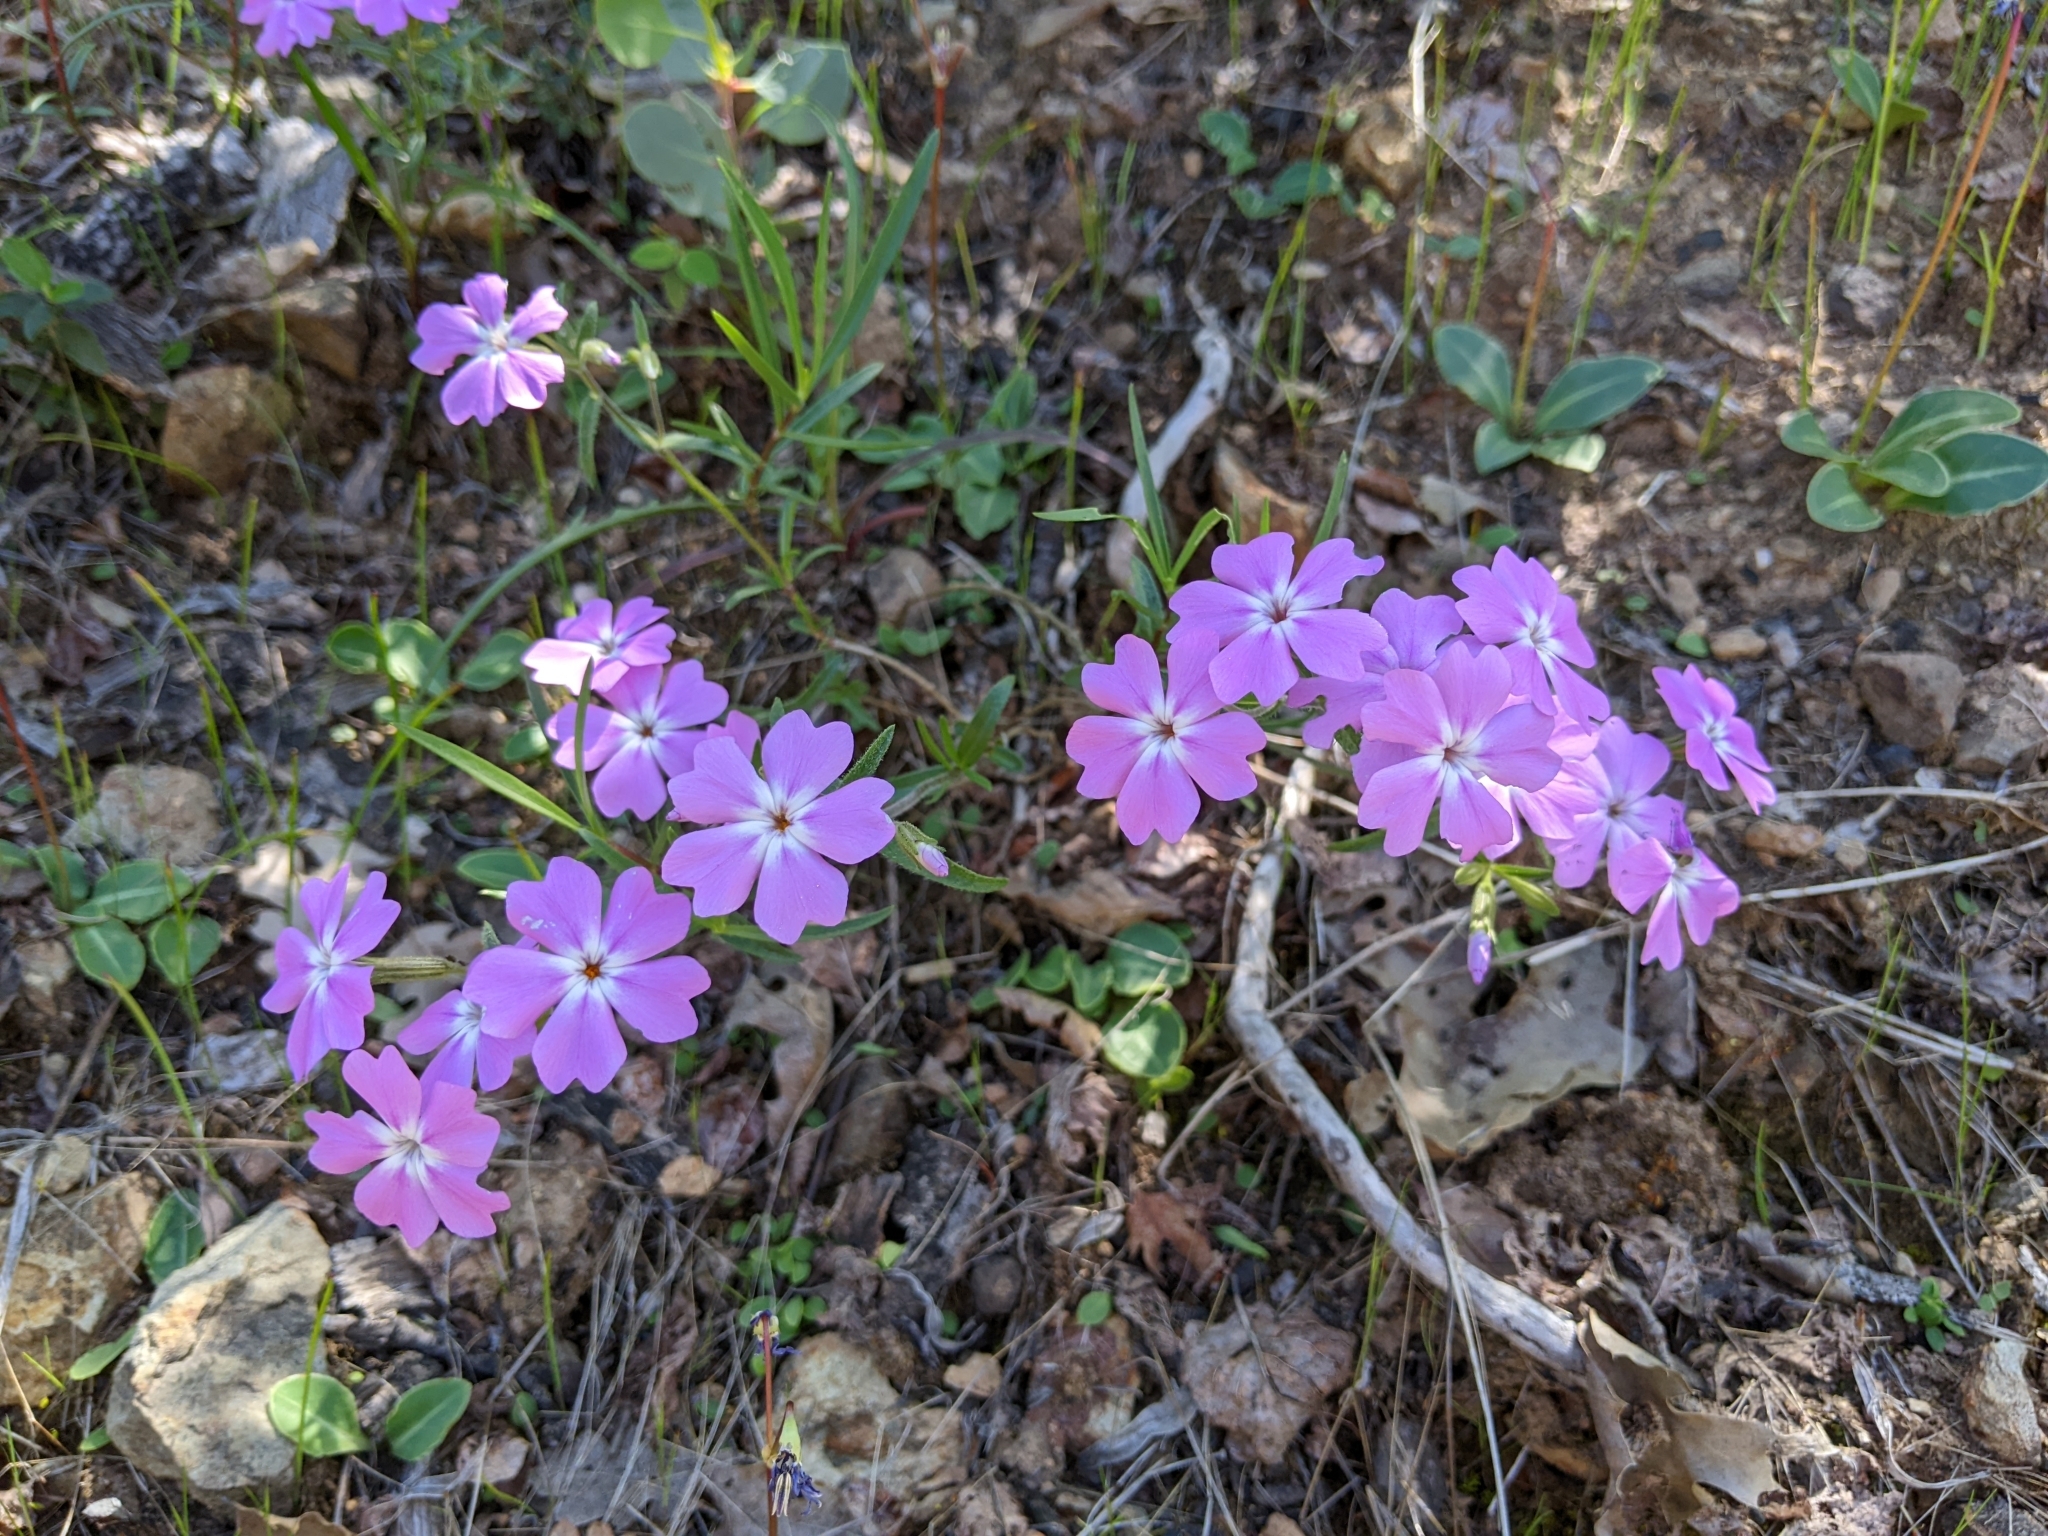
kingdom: Plantae
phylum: Tracheophyta
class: Magnoliopsida
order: Ericales
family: Polemoniaceae
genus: Phlox
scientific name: Phlox speciosa
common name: Bush phlox
